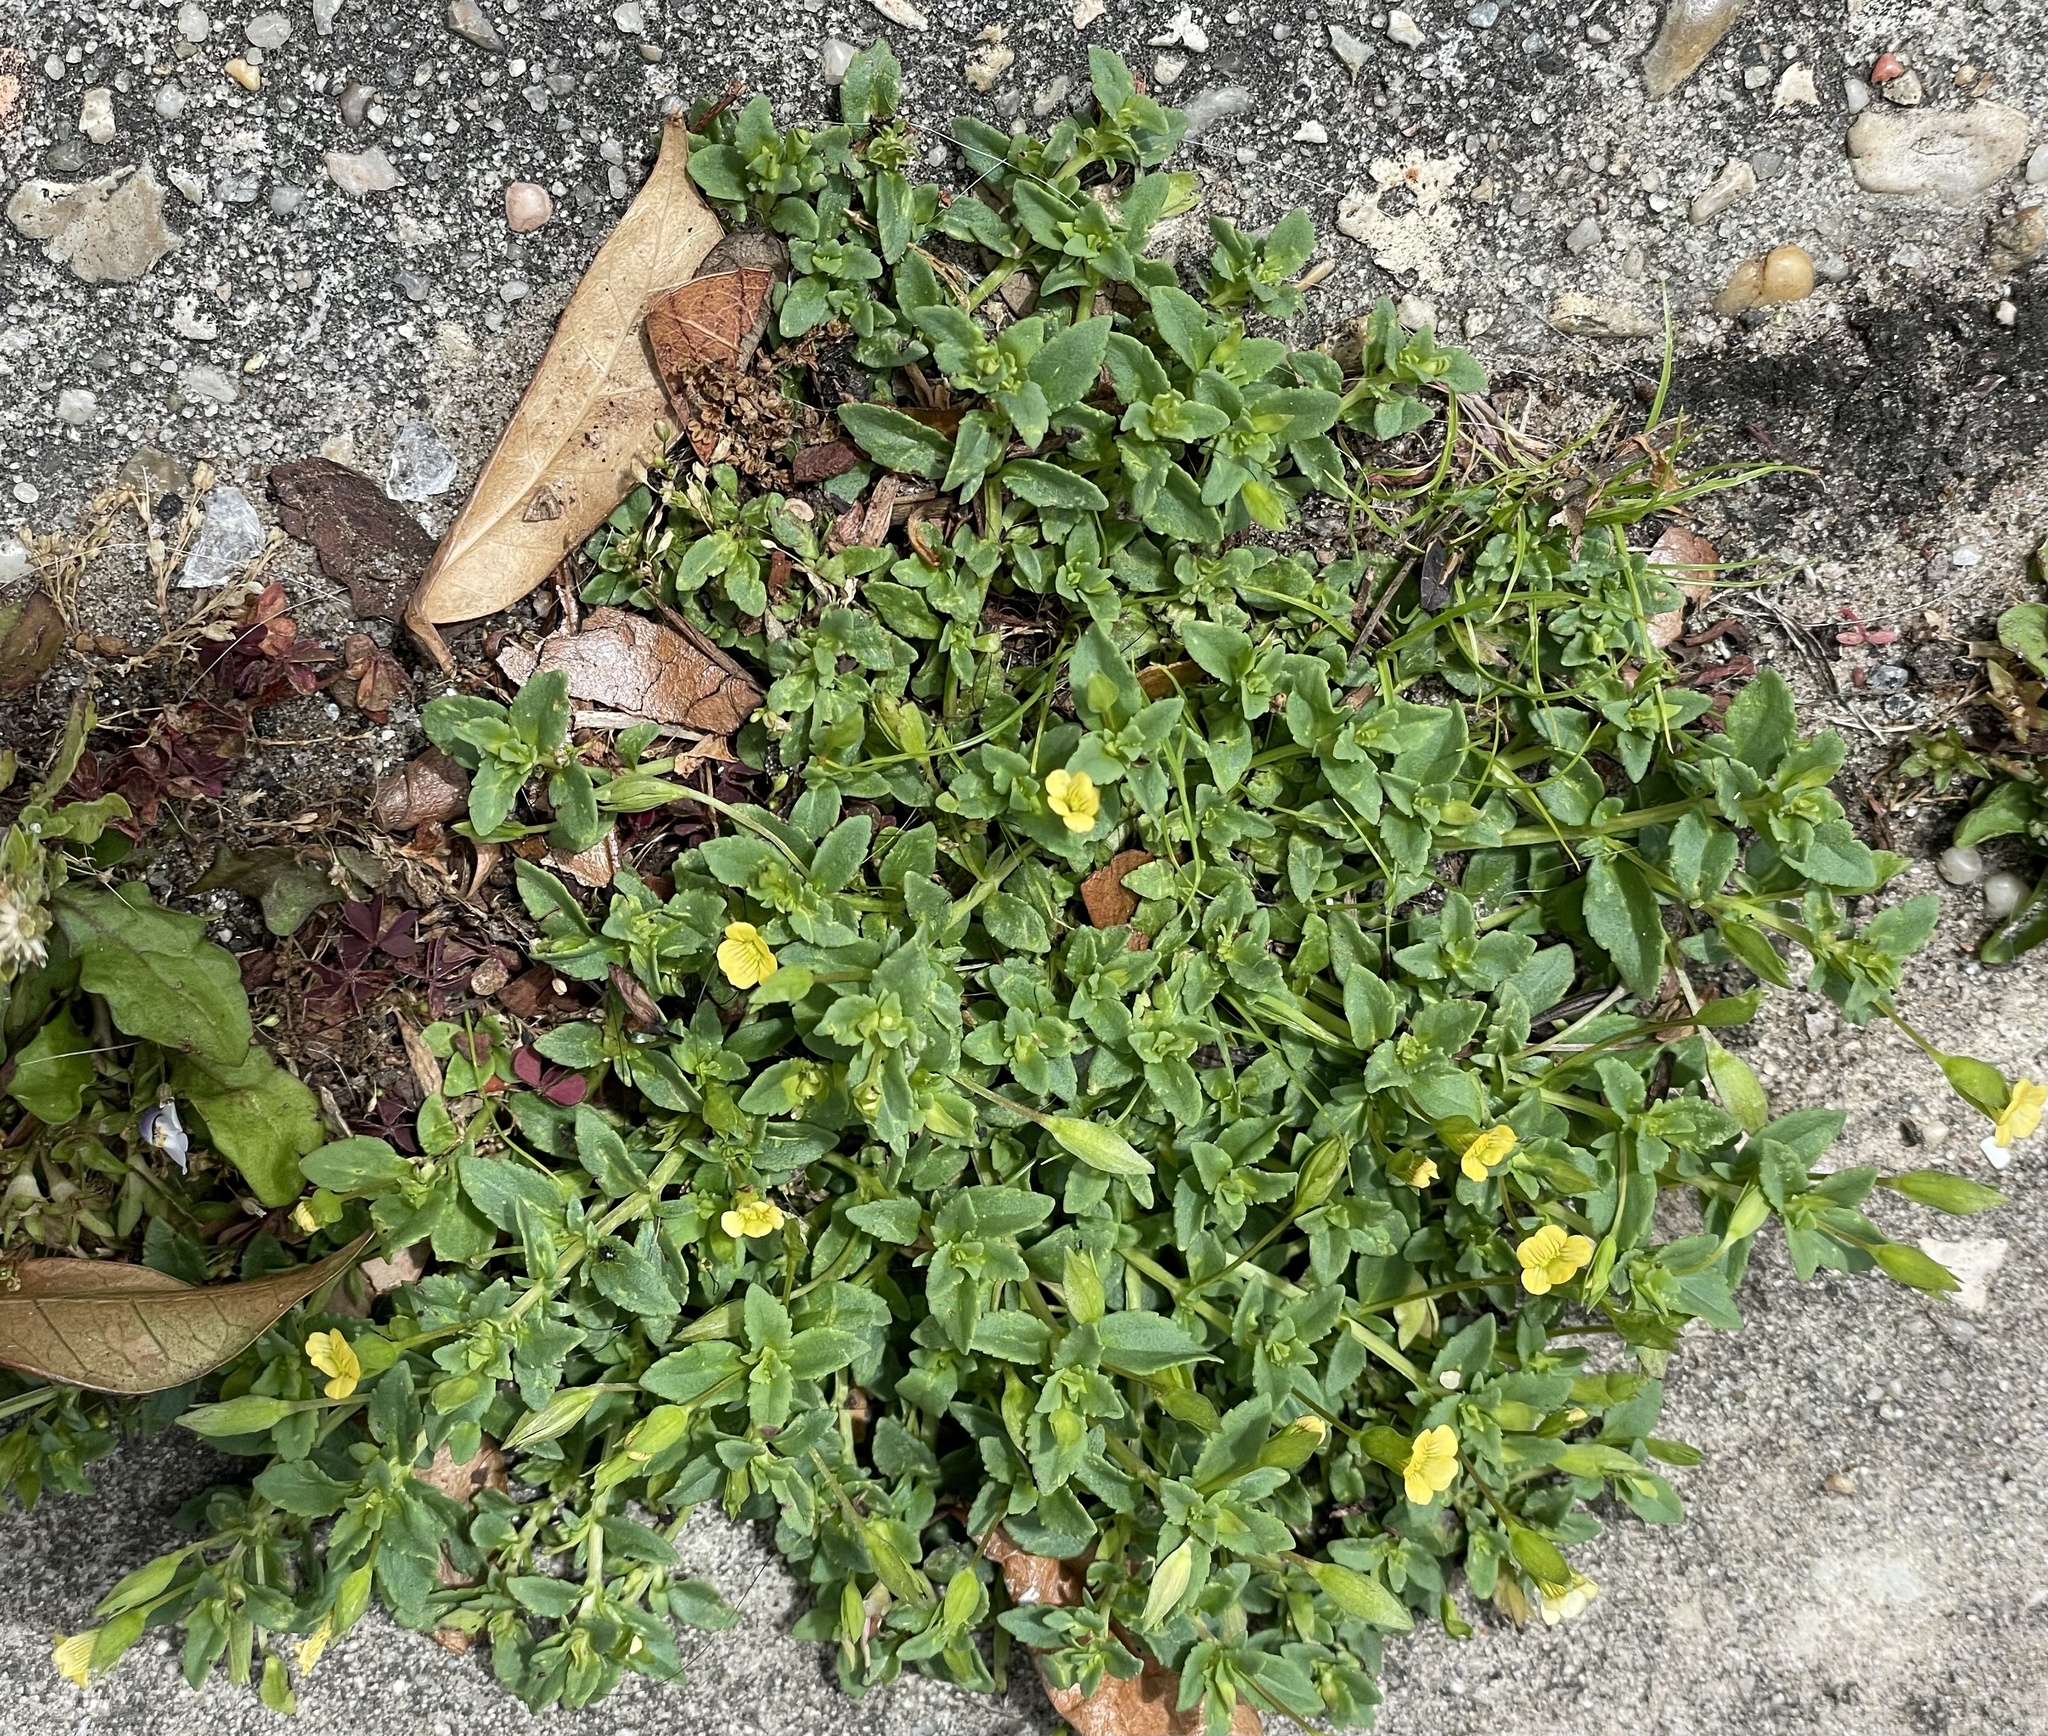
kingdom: Plantae
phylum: Tracheophyta
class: Magnoliopsida
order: Lamiales
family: Plantaginaceae
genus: Mecardonia
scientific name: Mecardonia procumbens
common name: Baby jump-up
